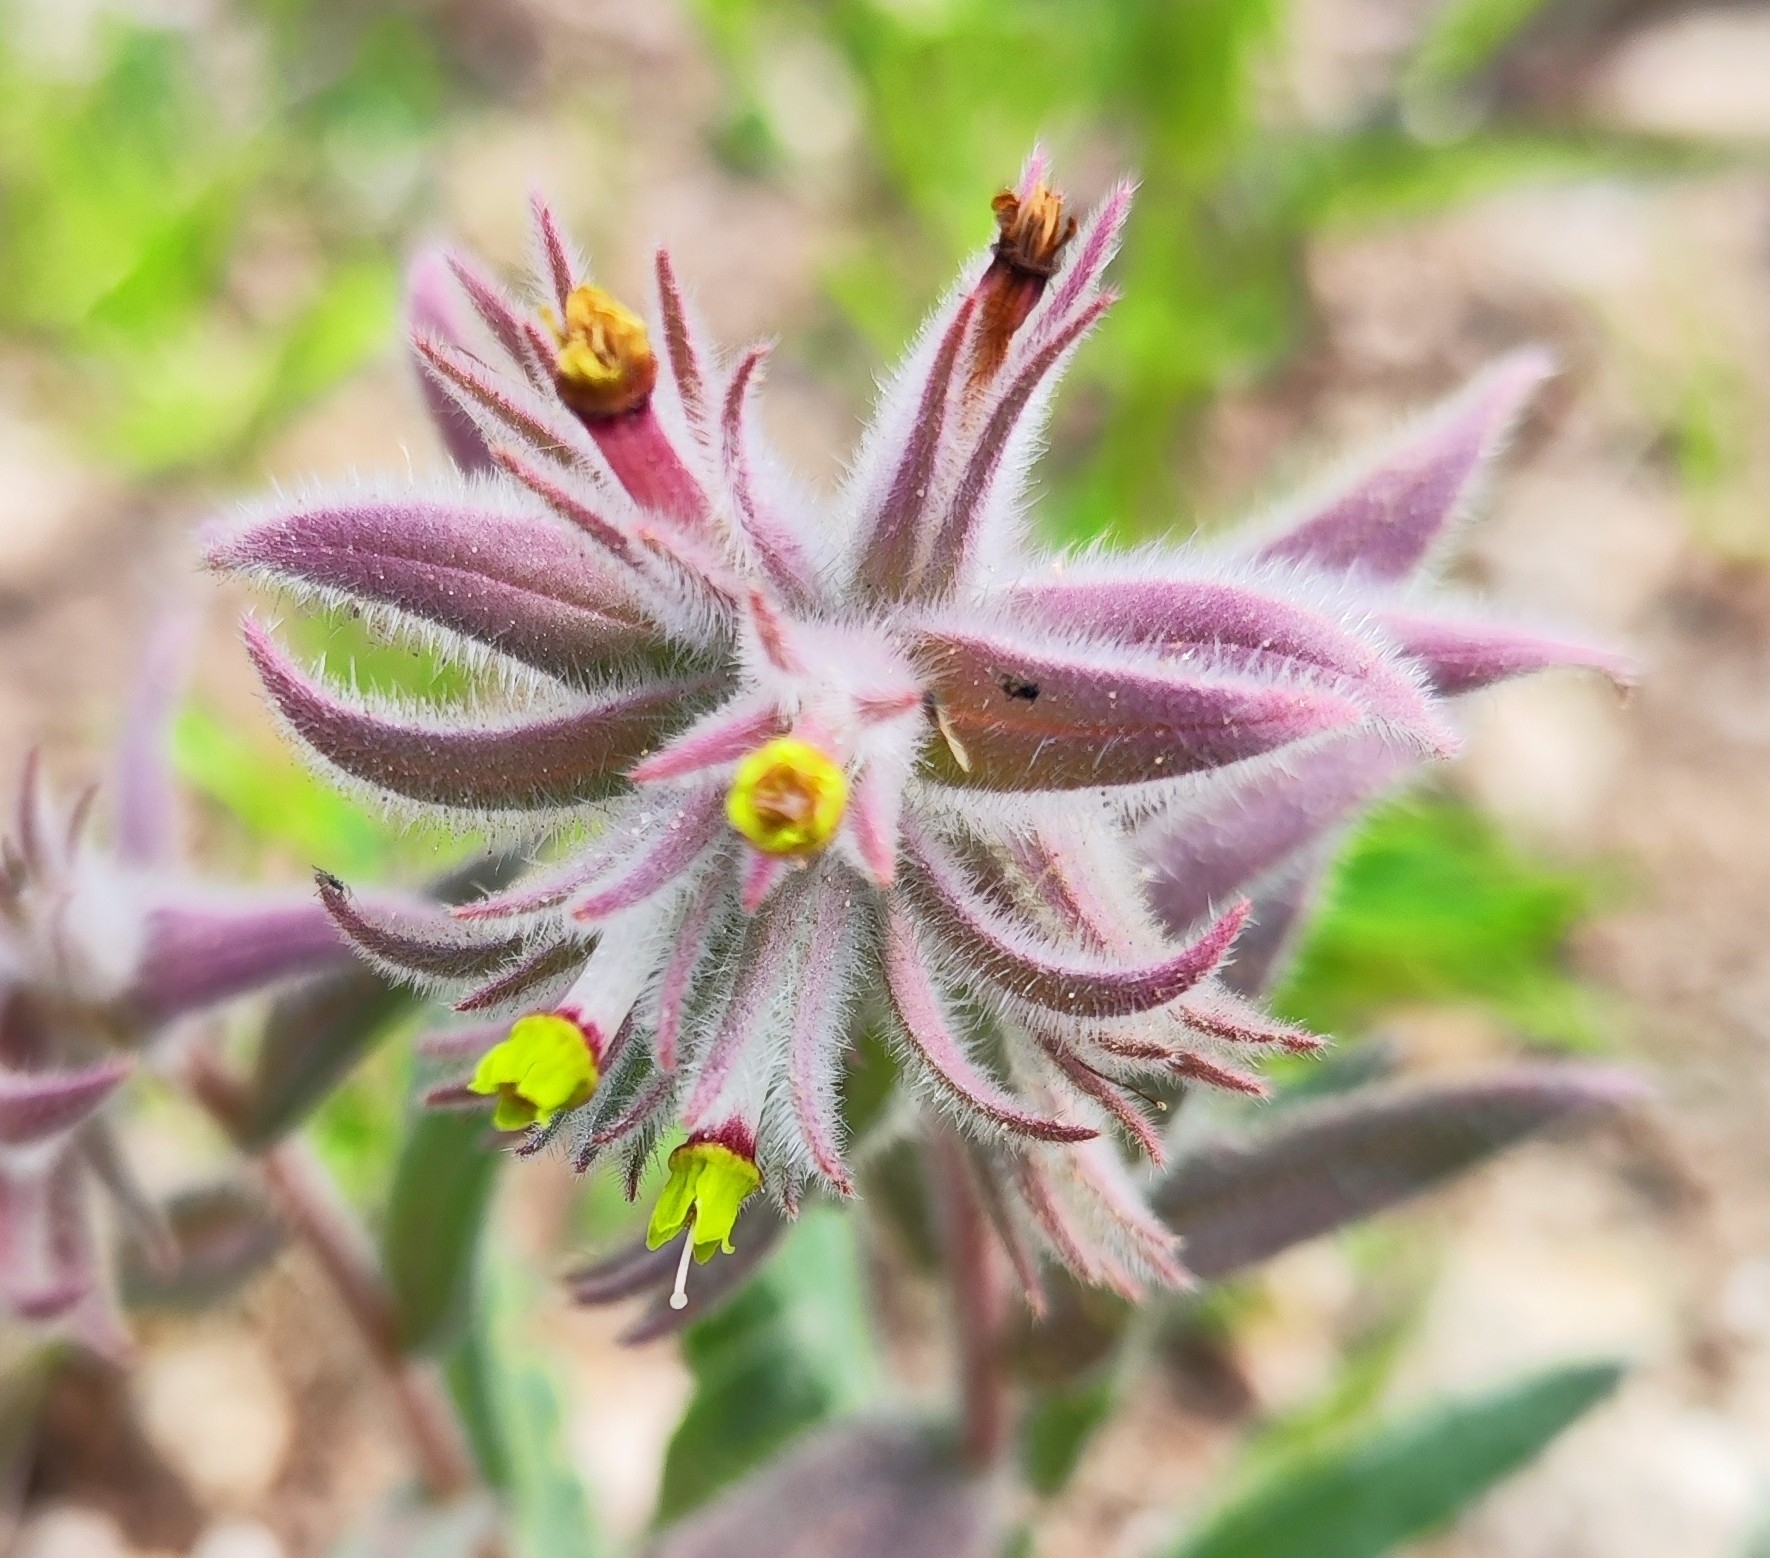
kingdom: Plantae
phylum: Tracheophyta
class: Magnoliopsida
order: Boraginales
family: Boraginaceae
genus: Nonea
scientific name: Nonea calycina
